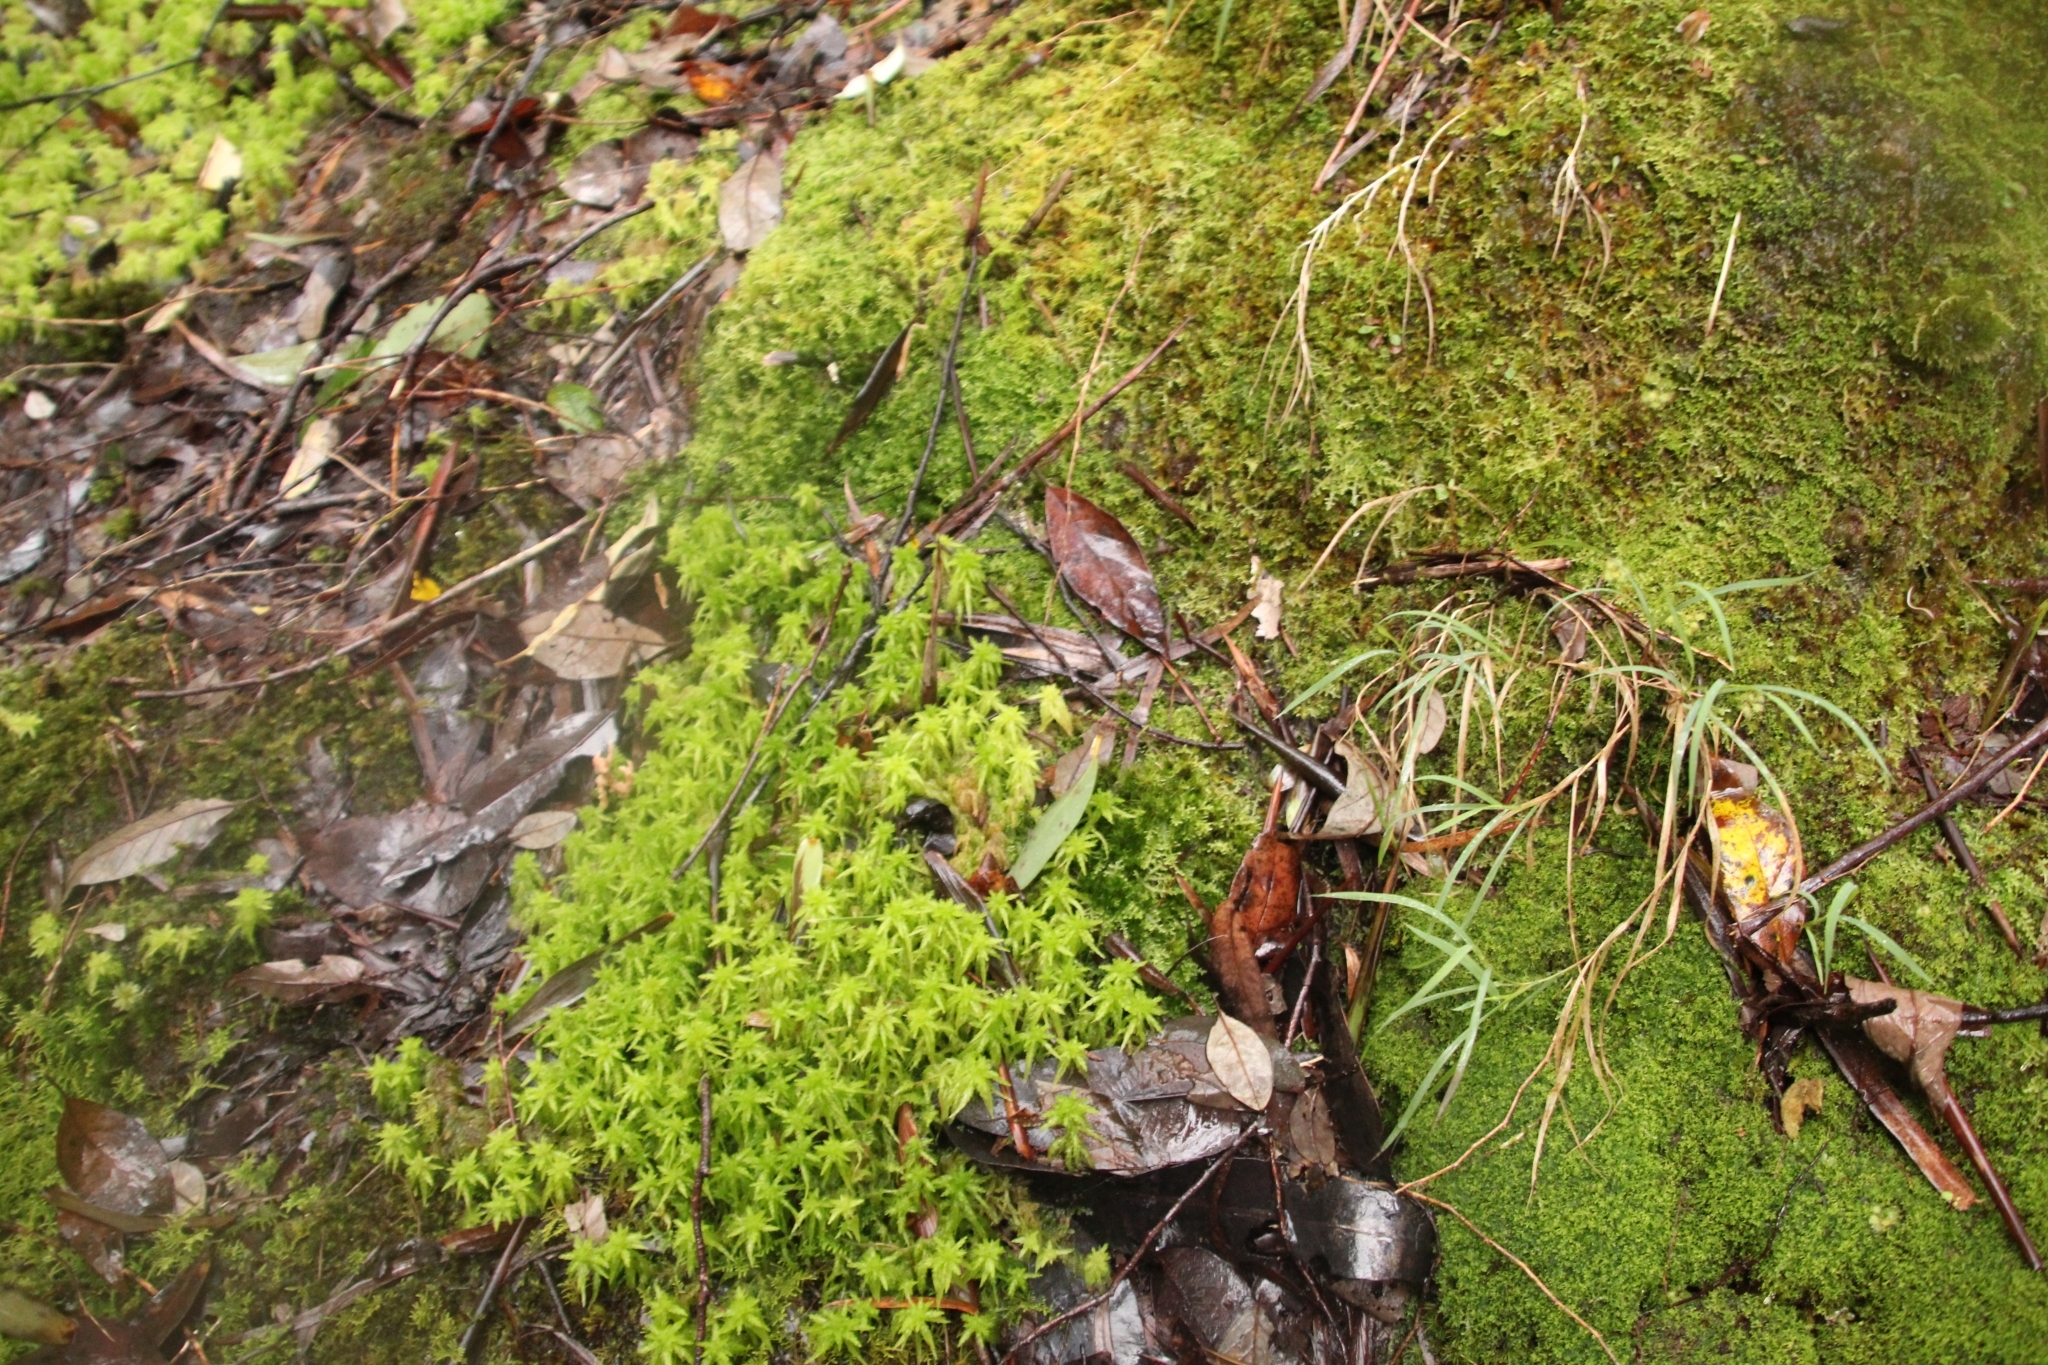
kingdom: Plantae
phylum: Bryophyta
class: Sphagnopsida
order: Sphagnales
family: Sphagnaceae
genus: Sphagnum
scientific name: Sphagnum novozelandicum
